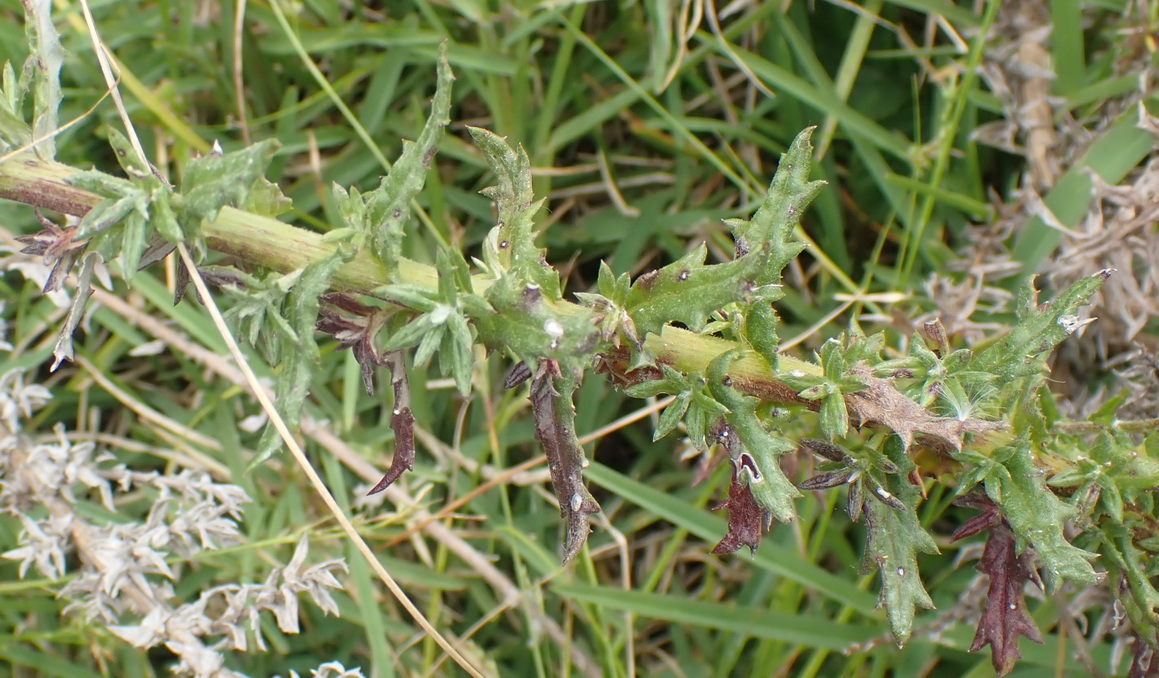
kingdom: Plantae
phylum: Tracheophyta
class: Magnoliopsida
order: Asterales
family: Asteraceae
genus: Senecio
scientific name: Senecio ilicifolius
